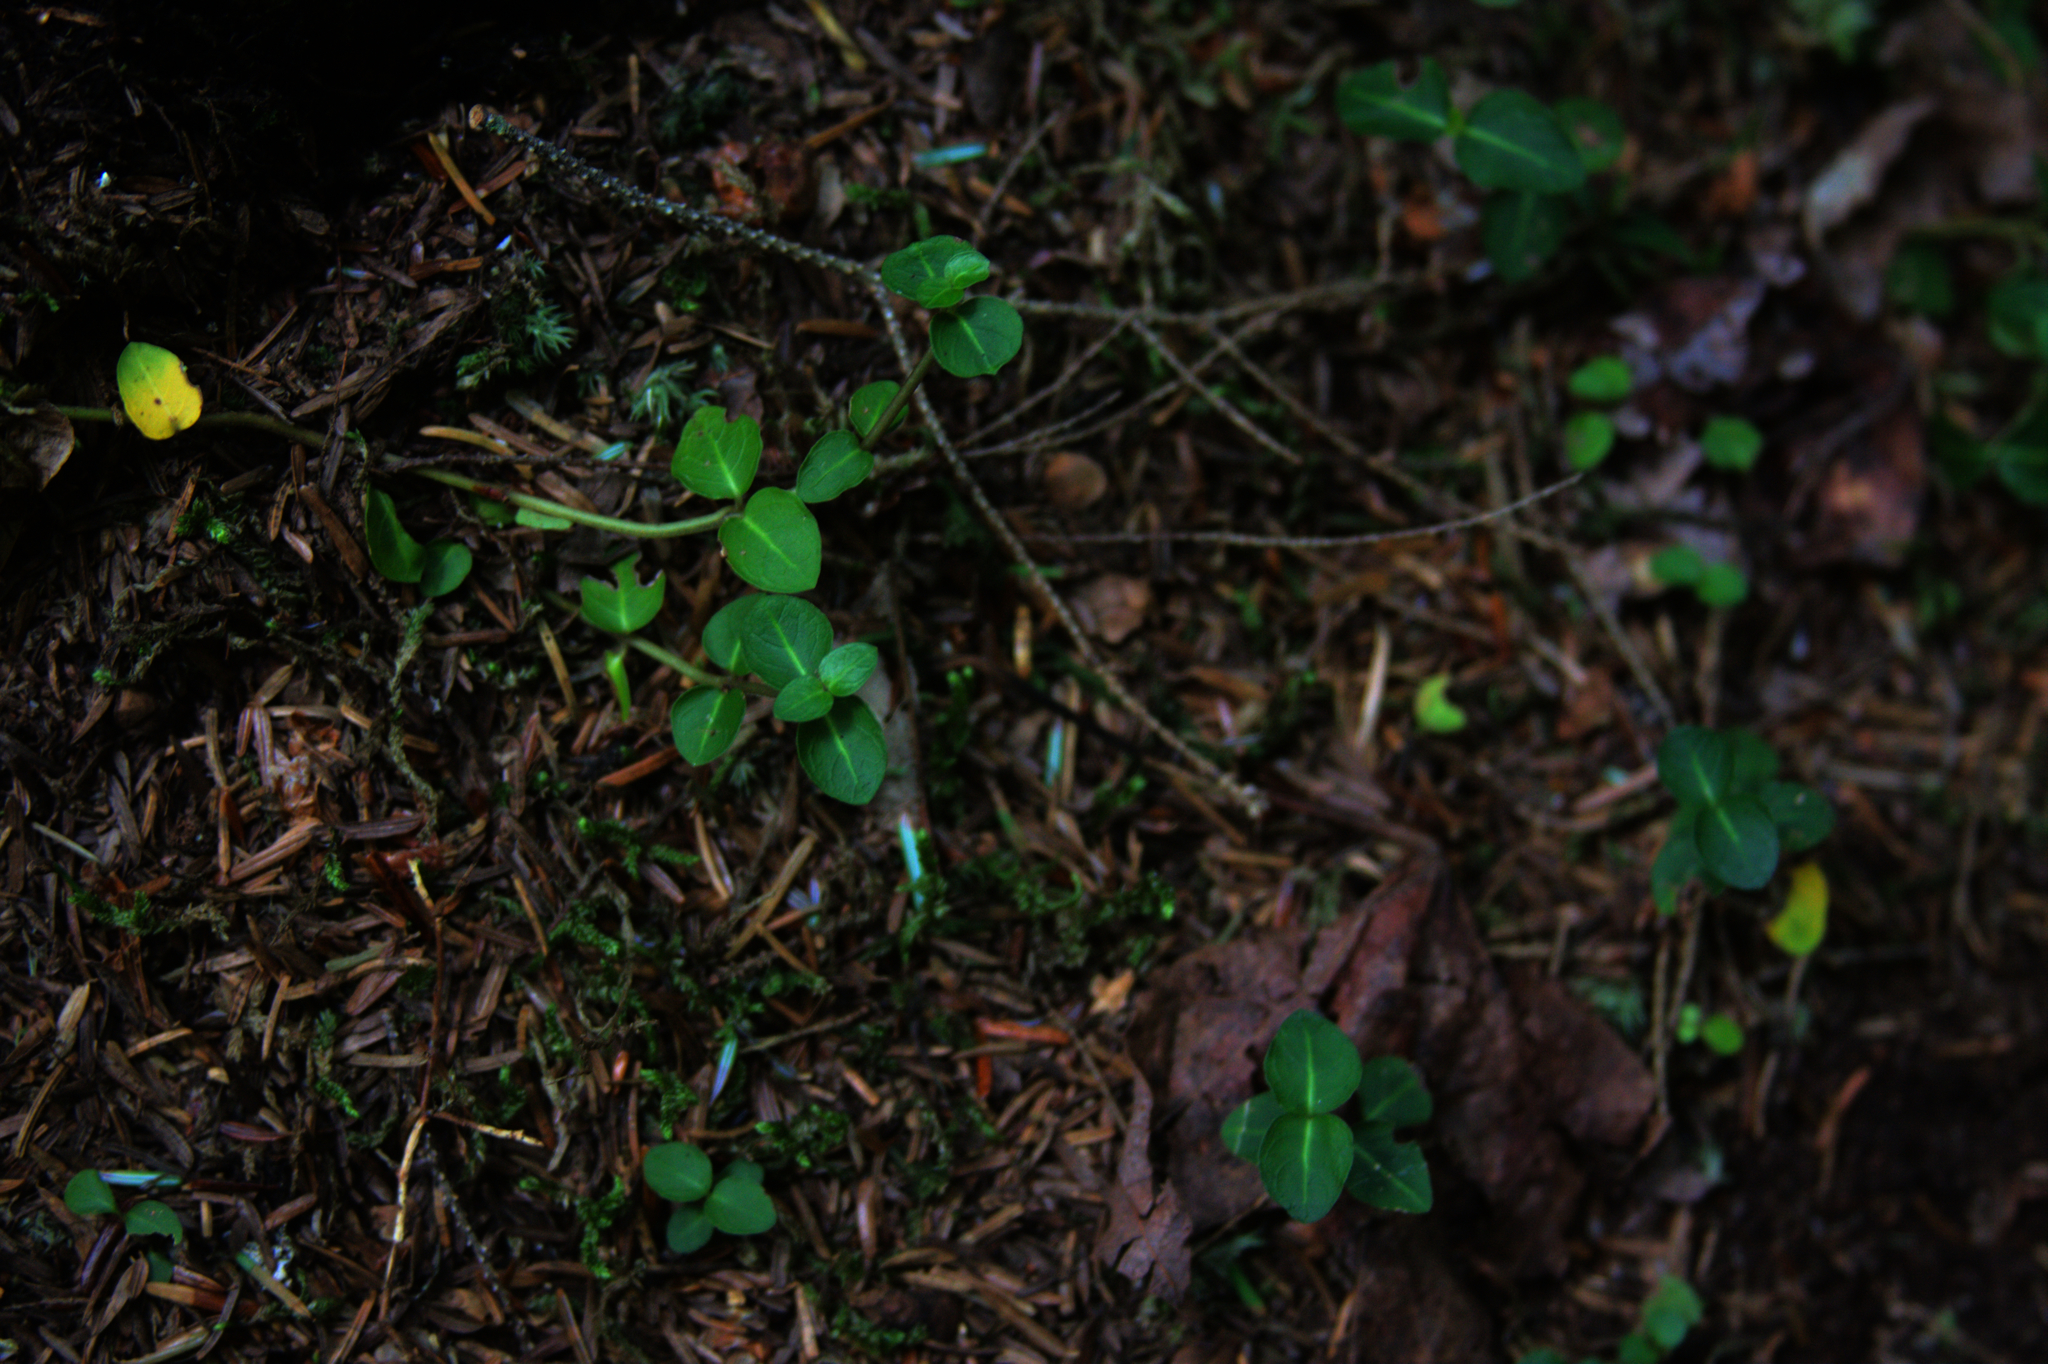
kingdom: Plantae
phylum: Tracheophyta
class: Magnoliopsida
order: Gentianales
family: Rubiaceae
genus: Mitchella
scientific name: Mitchella repens
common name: Partridge-berry
